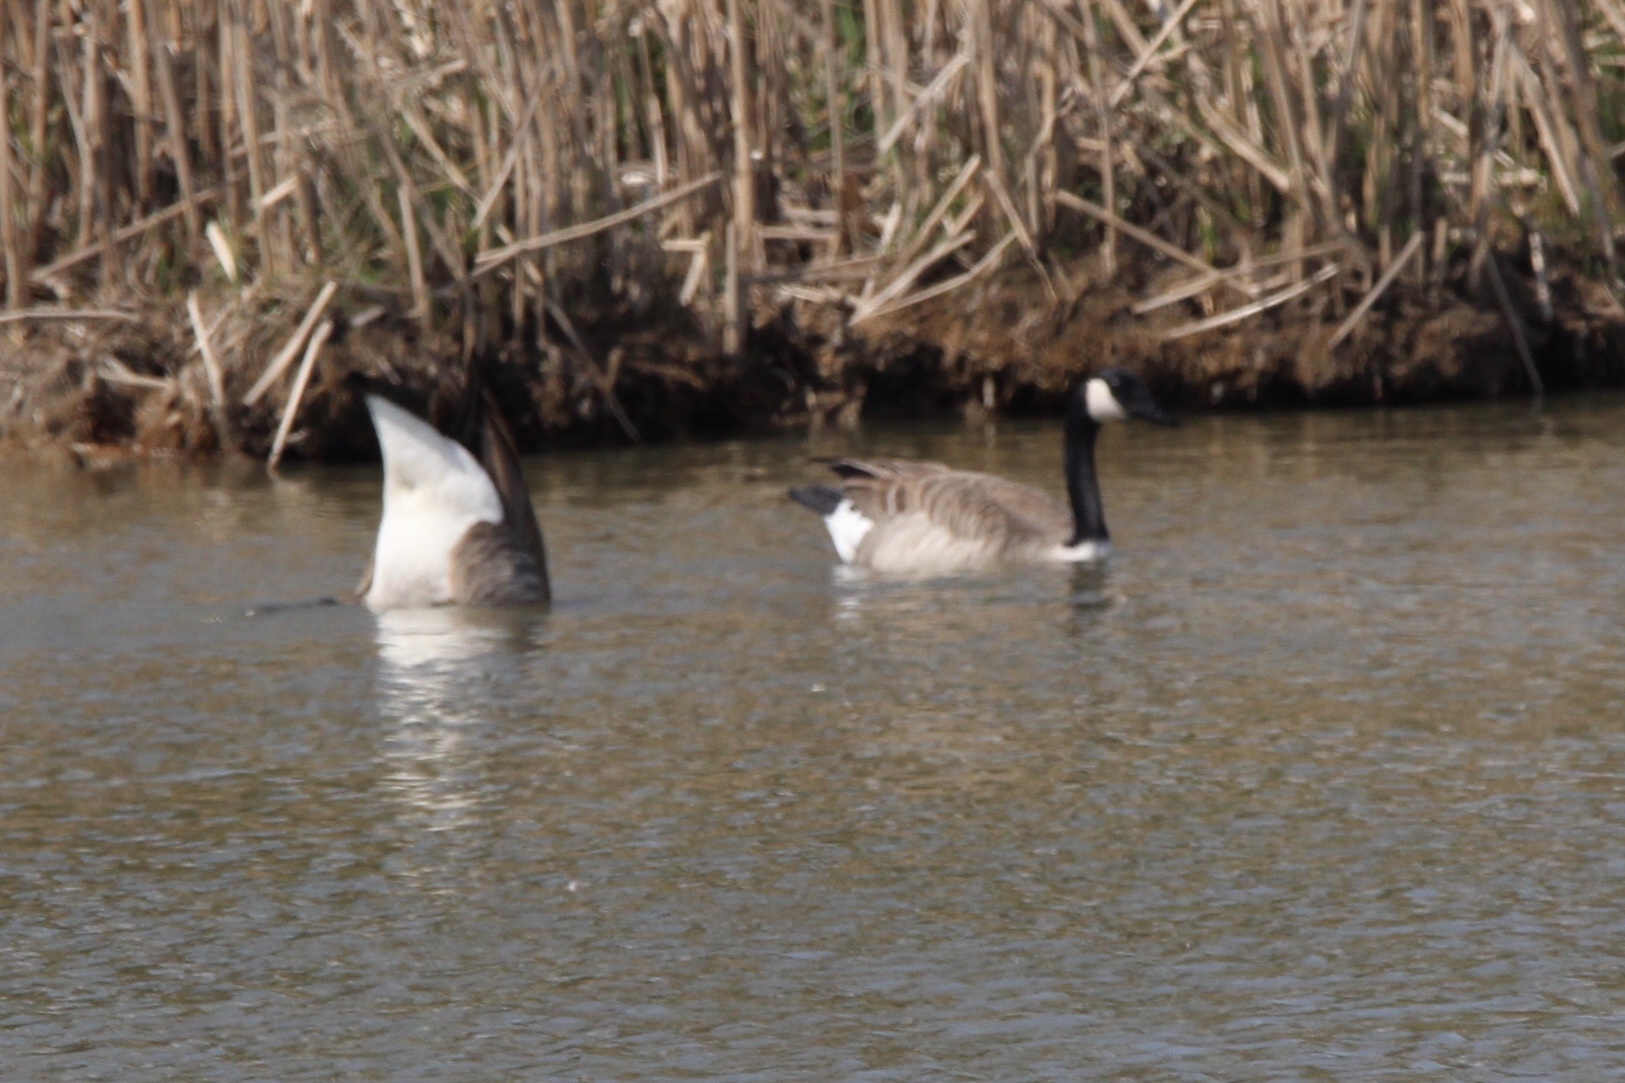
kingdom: Animalia
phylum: Chordata
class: Aves
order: Anseriformes
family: Anatidae
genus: Branta
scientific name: Branta canadensis
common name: Canada goose
